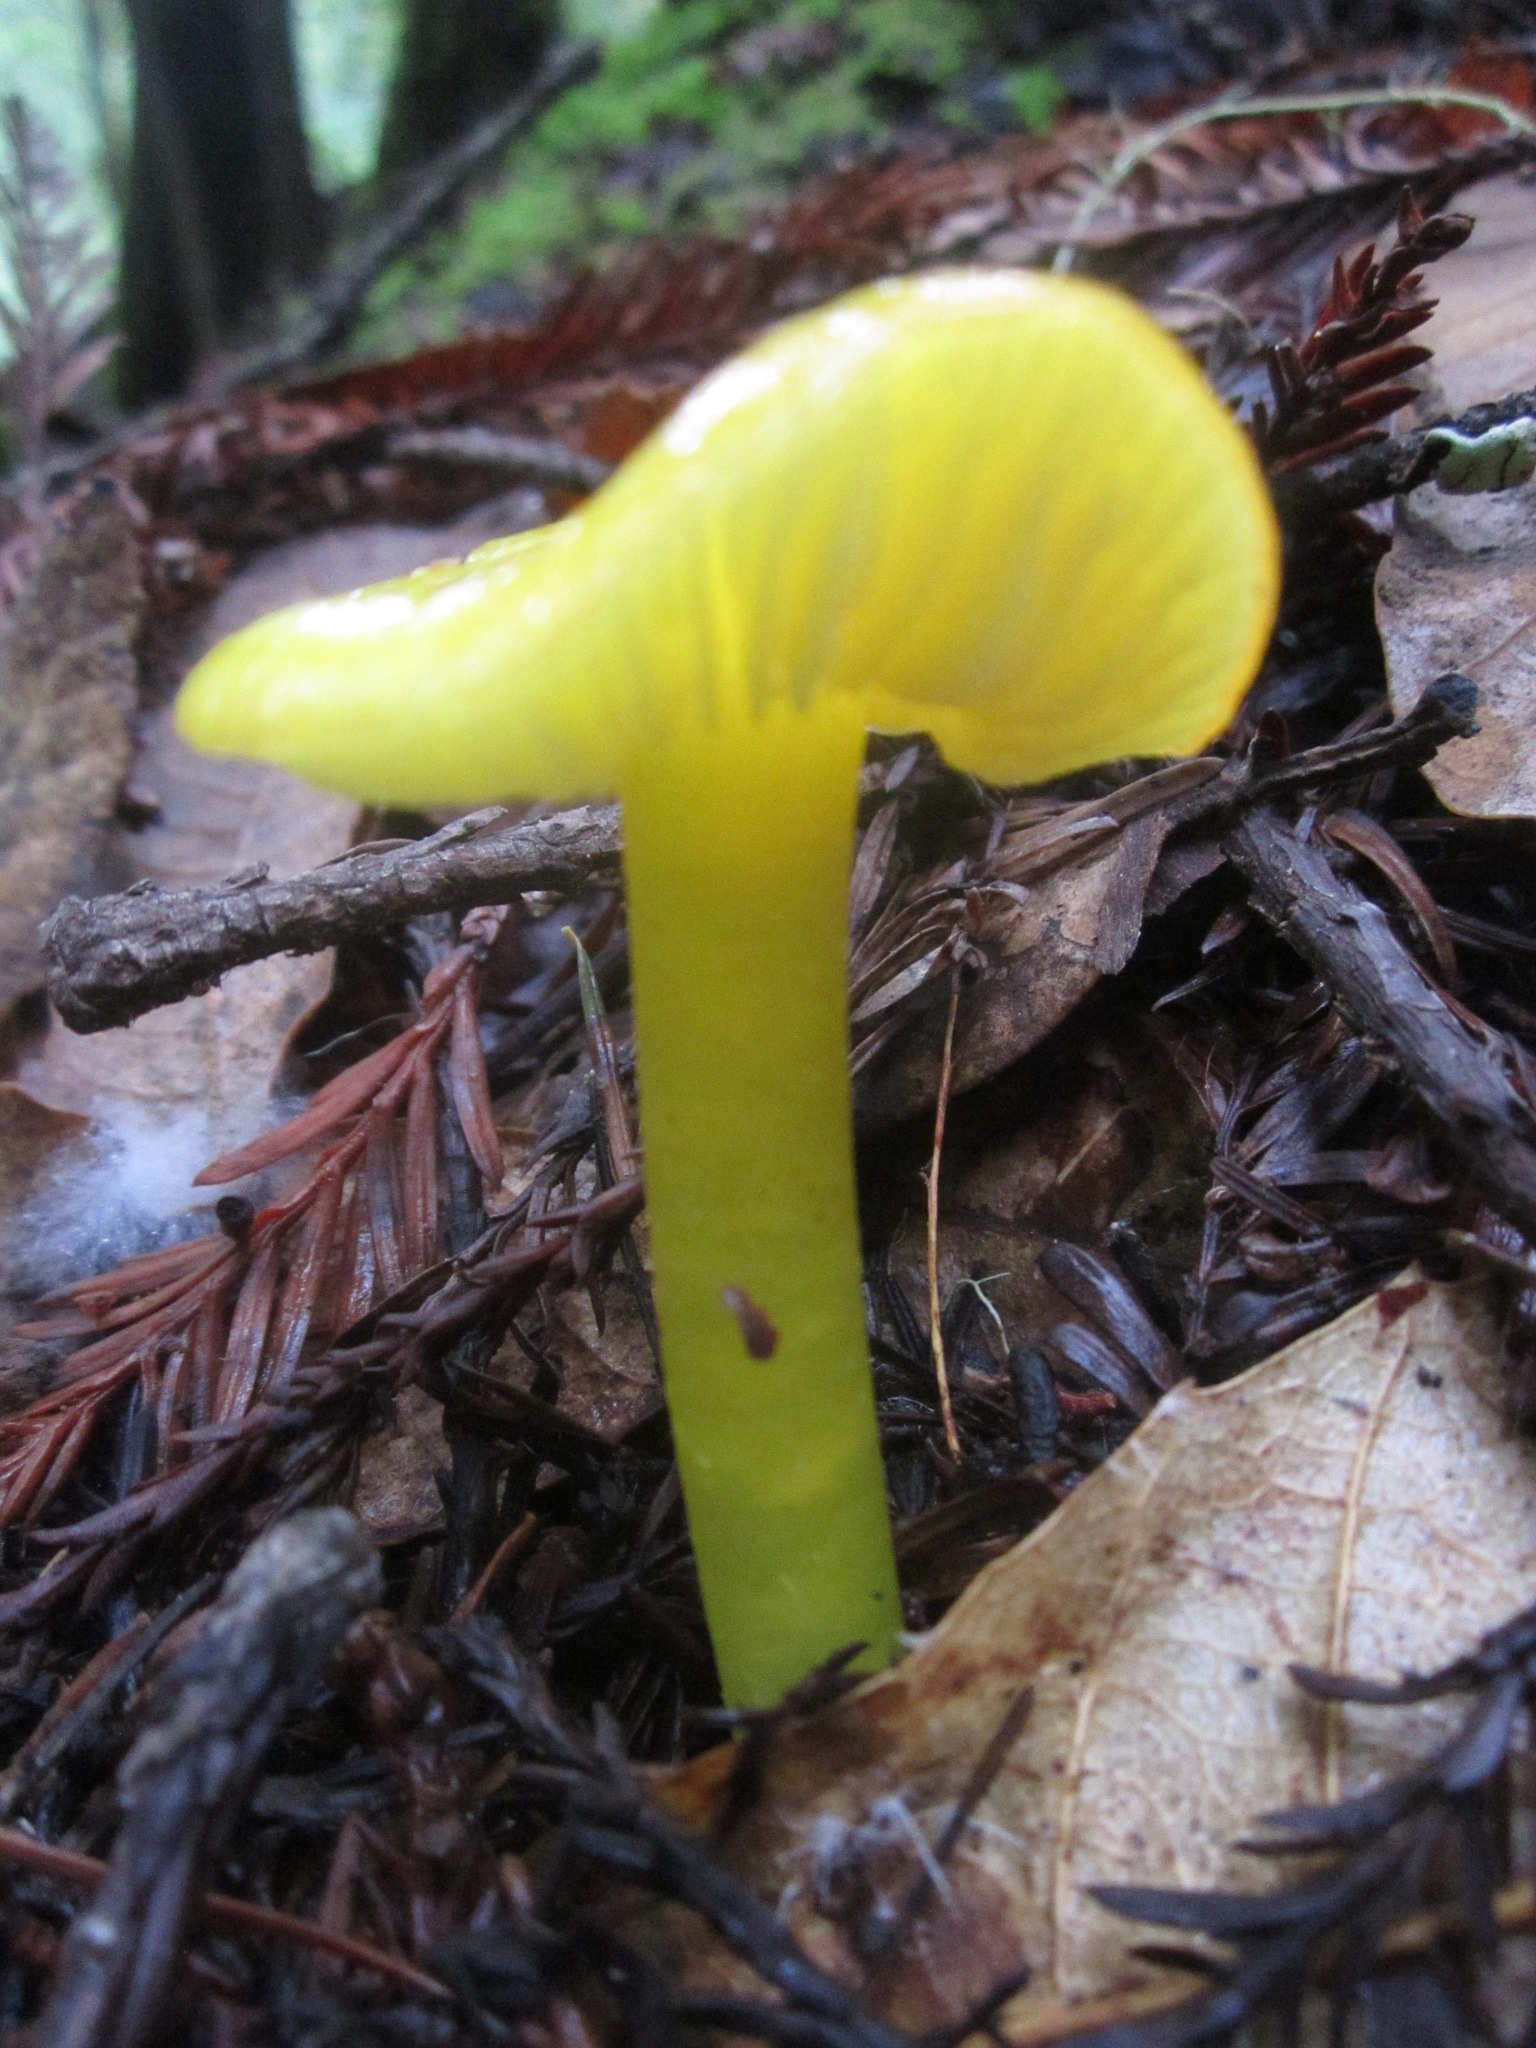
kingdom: Fungi
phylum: Basidiomycota
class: Agaricomycetes
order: Agaricales
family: Hygrophoraceae
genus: Hygrocybe
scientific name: Hygrocybe flavescens
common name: Golden waxy cap
